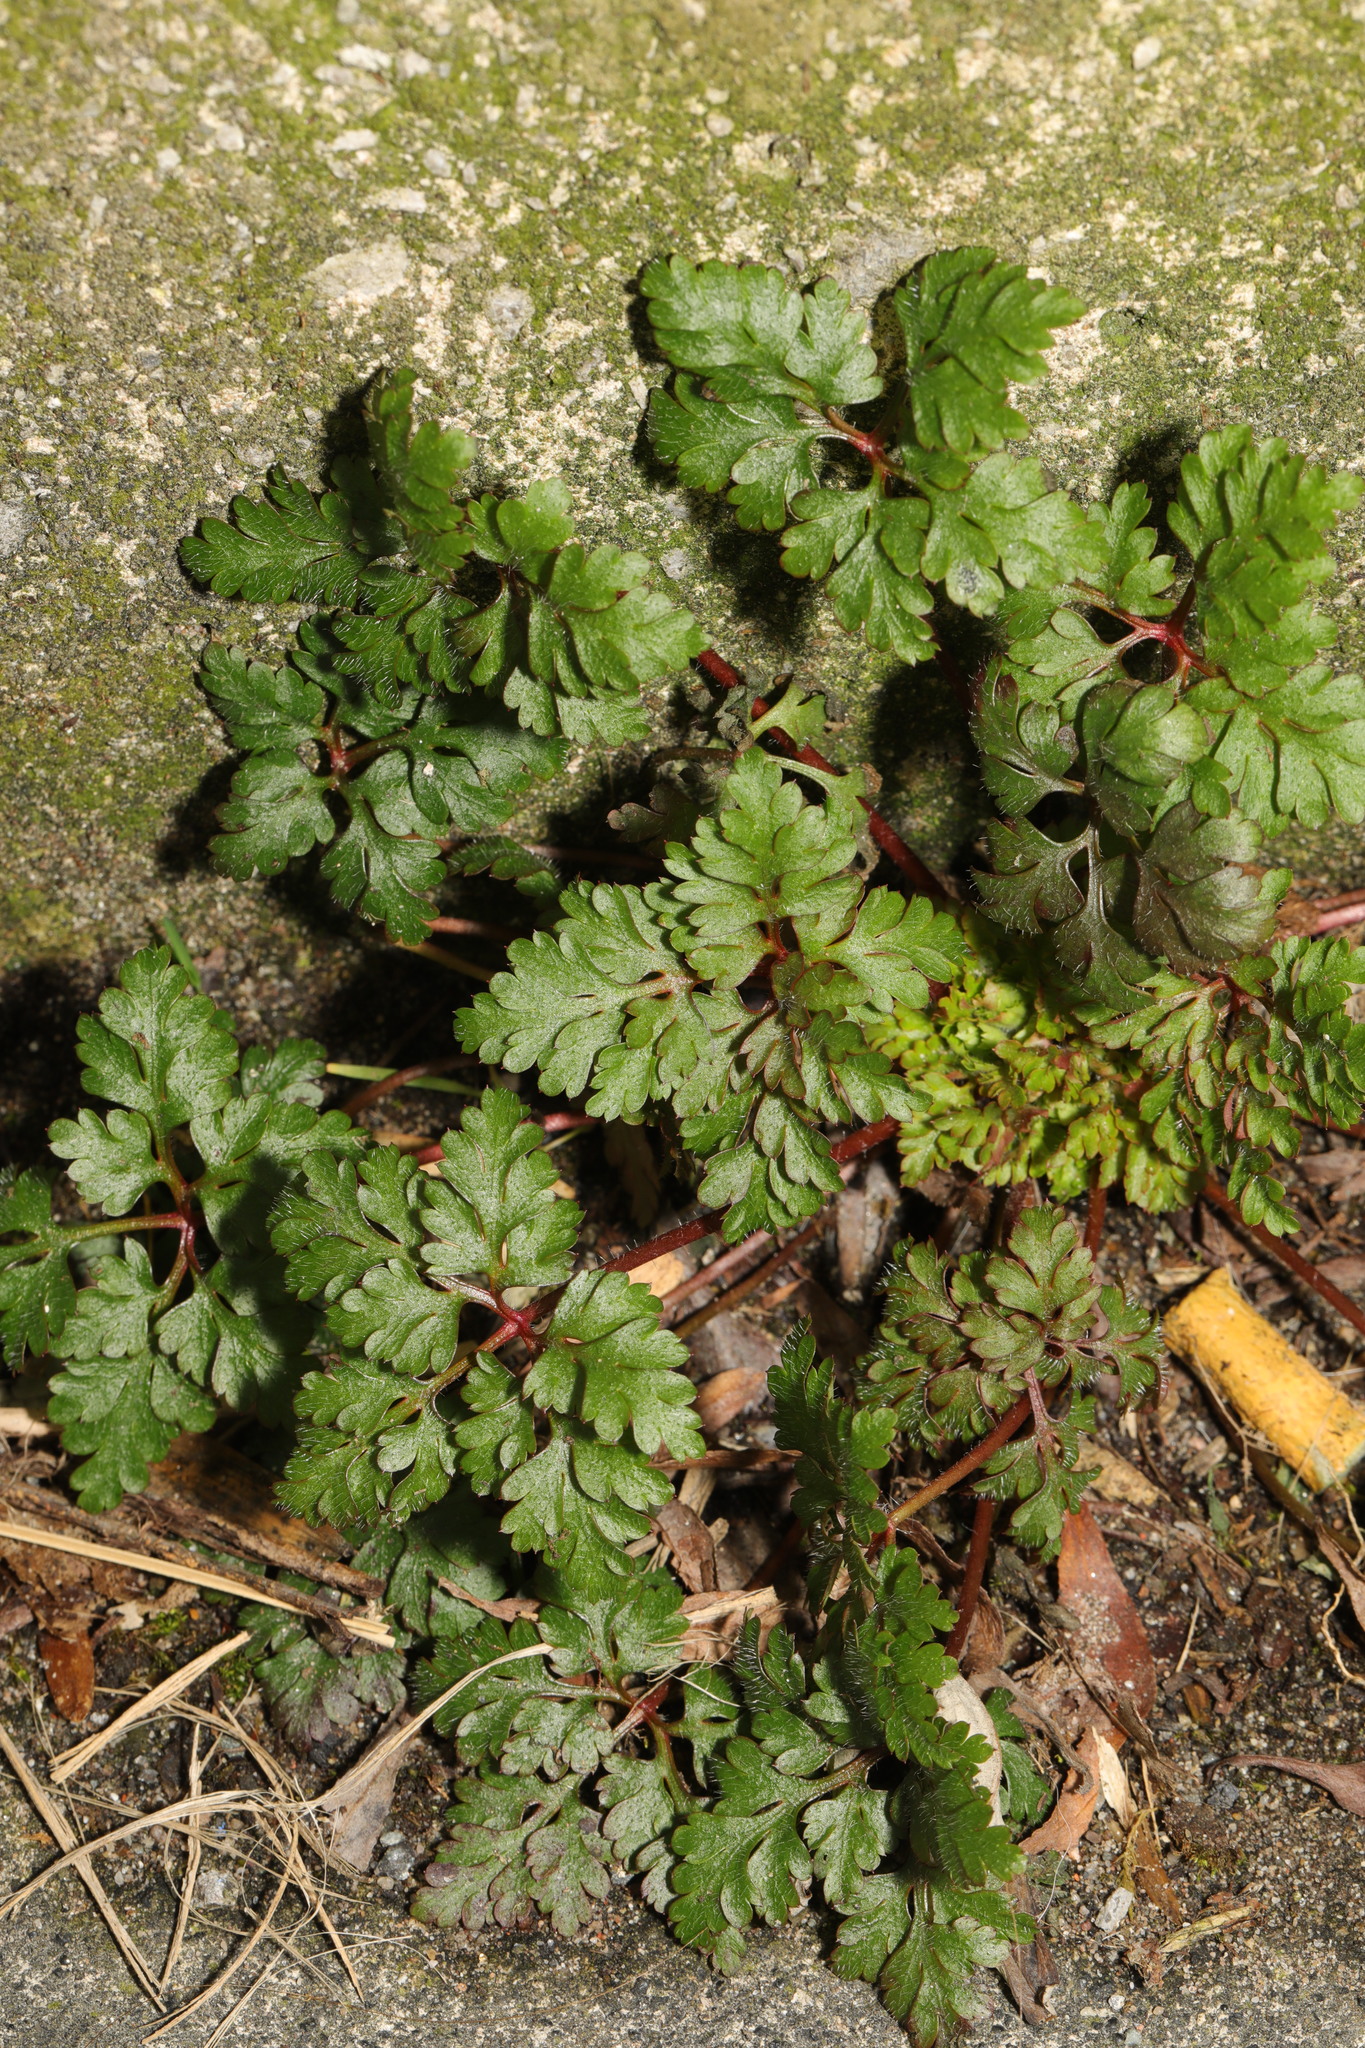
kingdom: Plantae
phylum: Tracheophyta
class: Magnoliopsida
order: Geraniales
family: Geraniaceae
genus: Geranium
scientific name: Geranium robertianum
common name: Herb-robert
